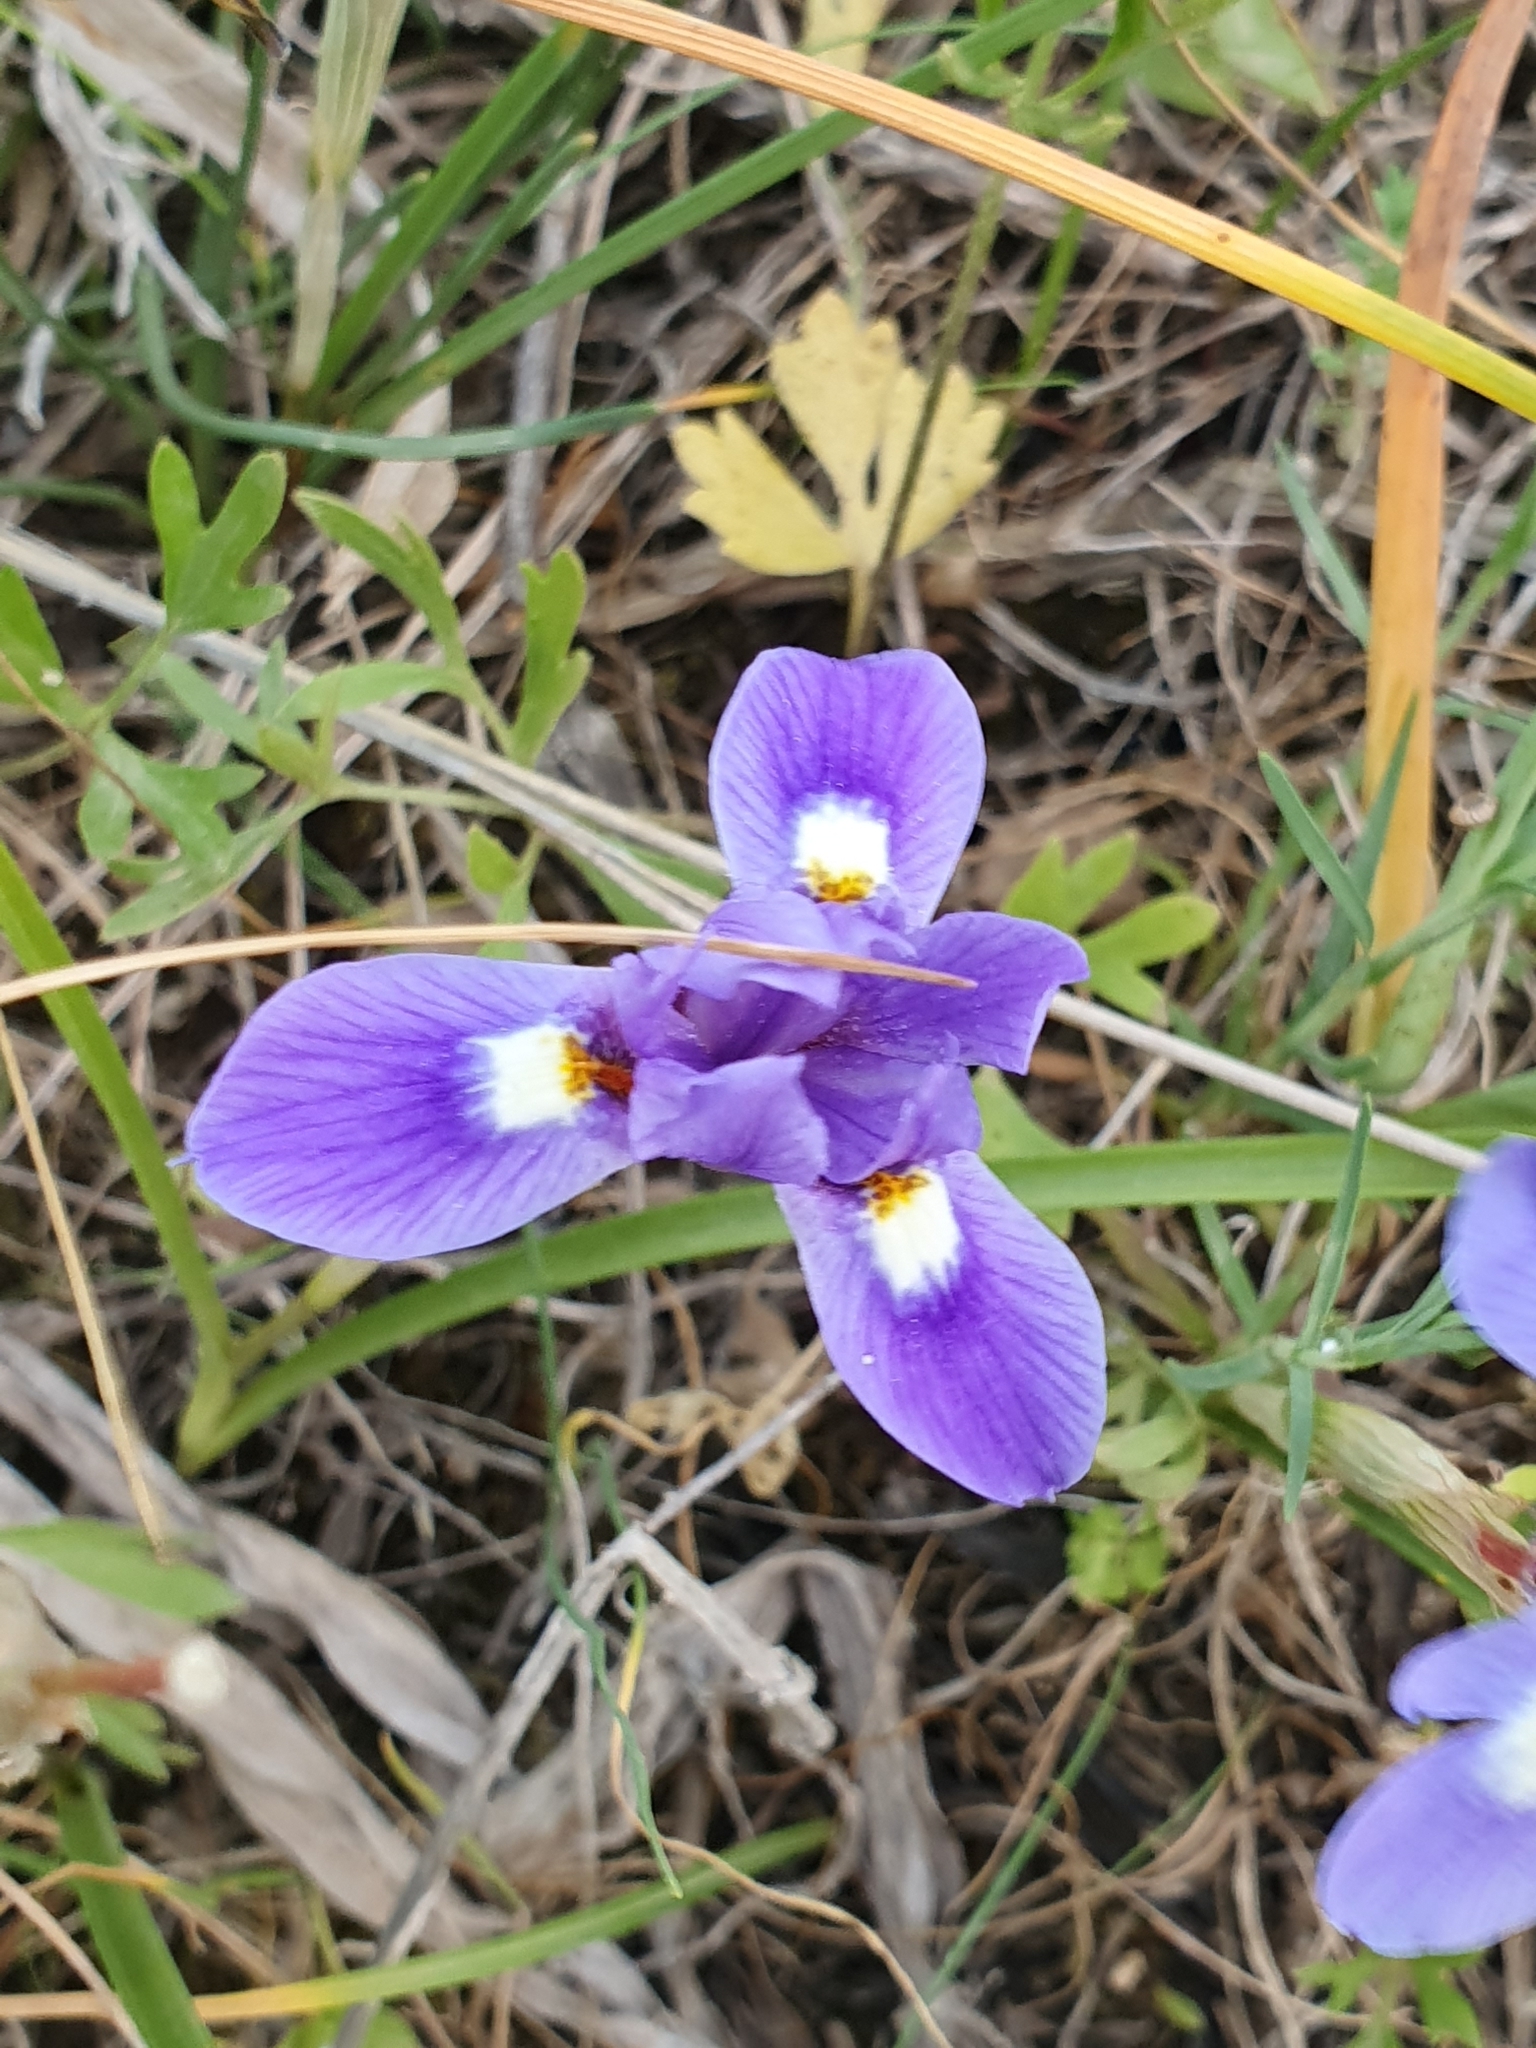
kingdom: Plantae
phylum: Tracheophyta
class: Liliopsida
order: Asparagales
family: Iridaceae
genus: Moraea
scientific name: Moraea sisyrinchium
